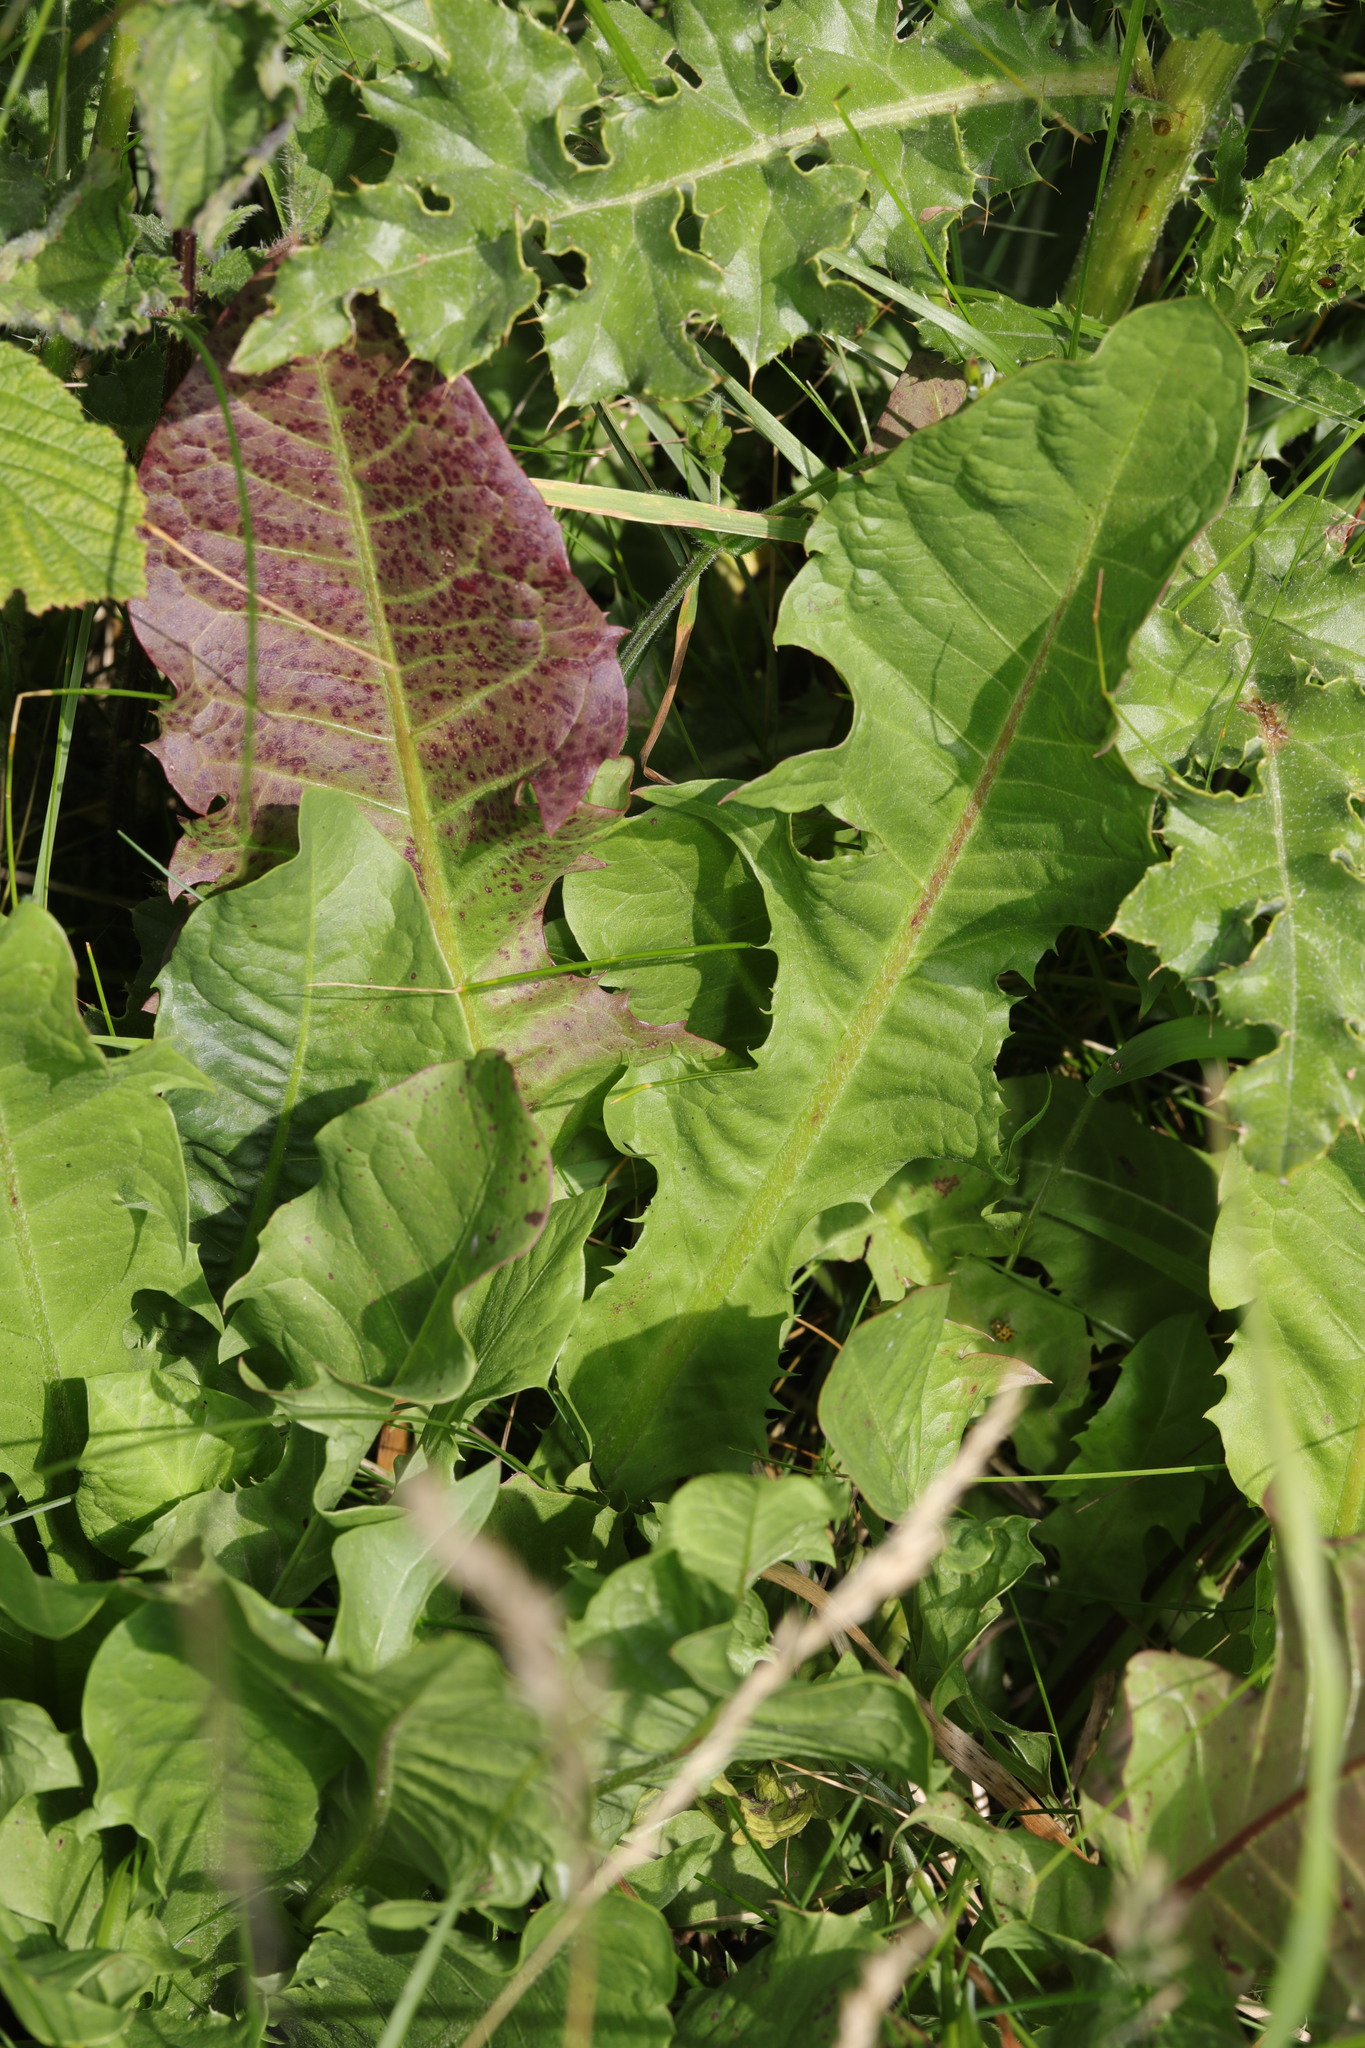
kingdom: Plantae
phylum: Tracheophyta
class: Magnoliopsida
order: Asterales
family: Asteraceae
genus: Taraxacum
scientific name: Taraxacum officinale
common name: Common dandelion
